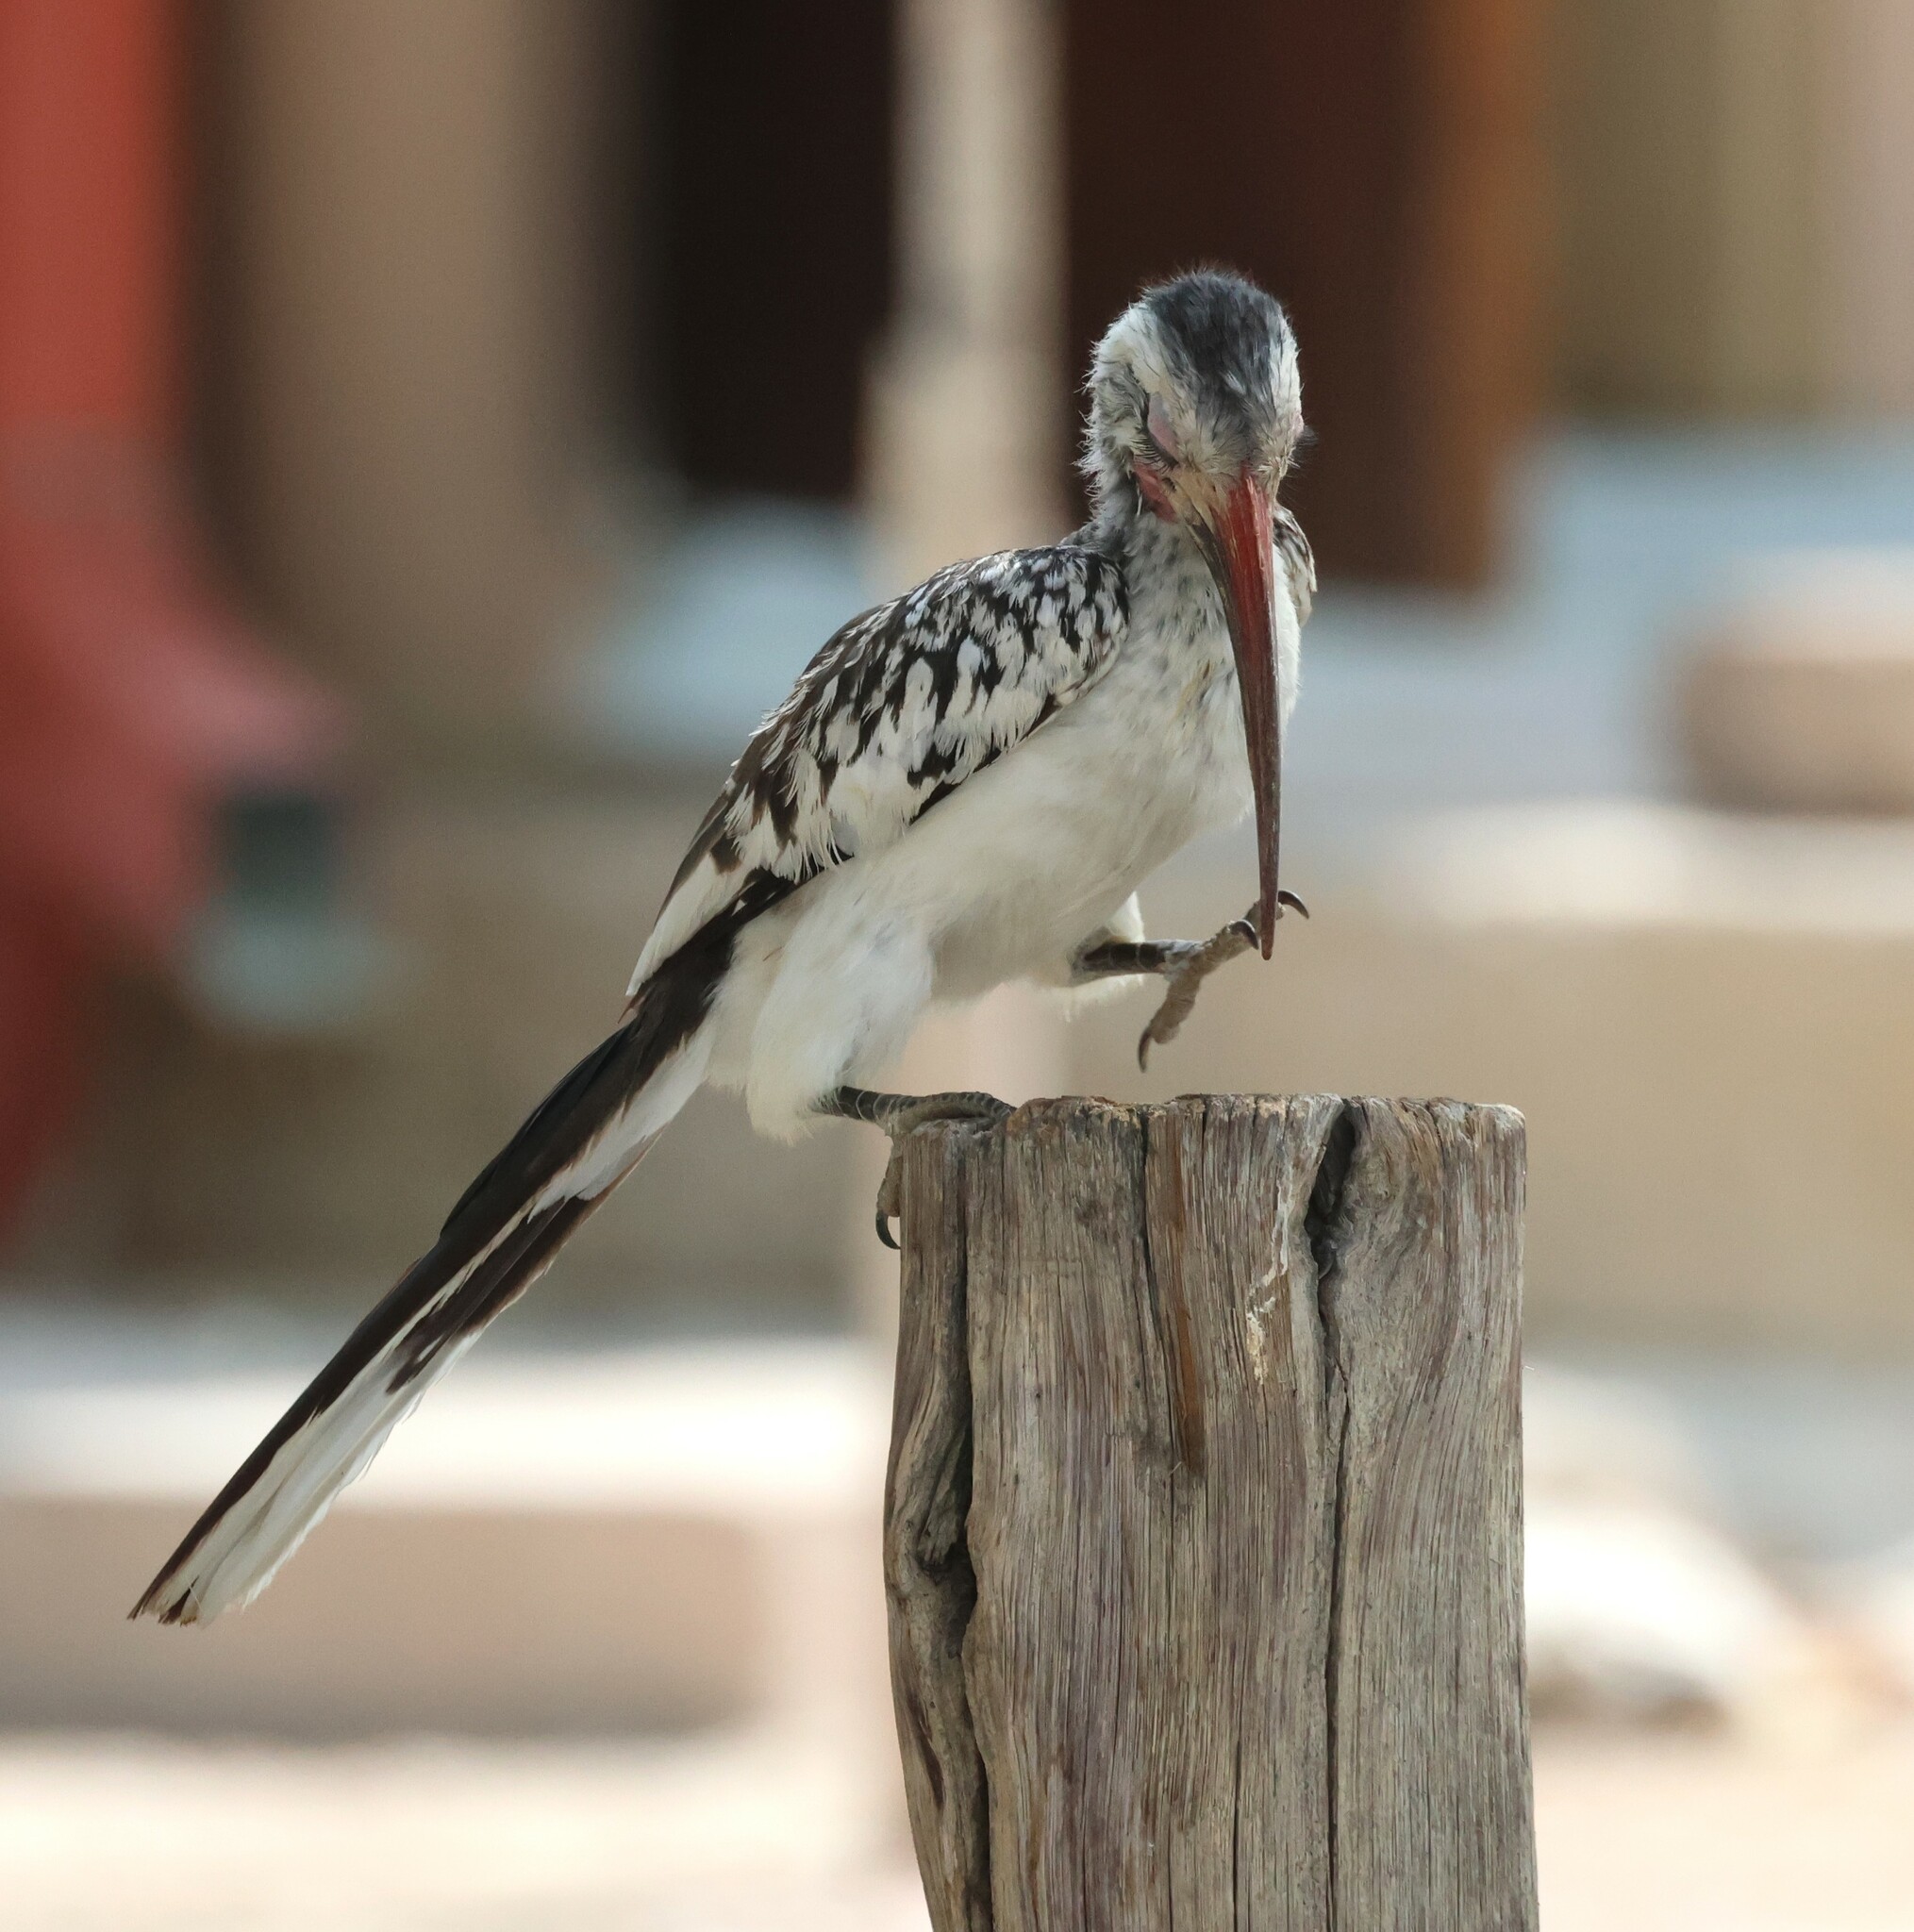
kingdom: Animalia
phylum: Chordata
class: Aves
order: Bucerotiformes
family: Bucerotidae
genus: Tockus
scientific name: Tockus rufirostris
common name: Southern red-billed hornbill
